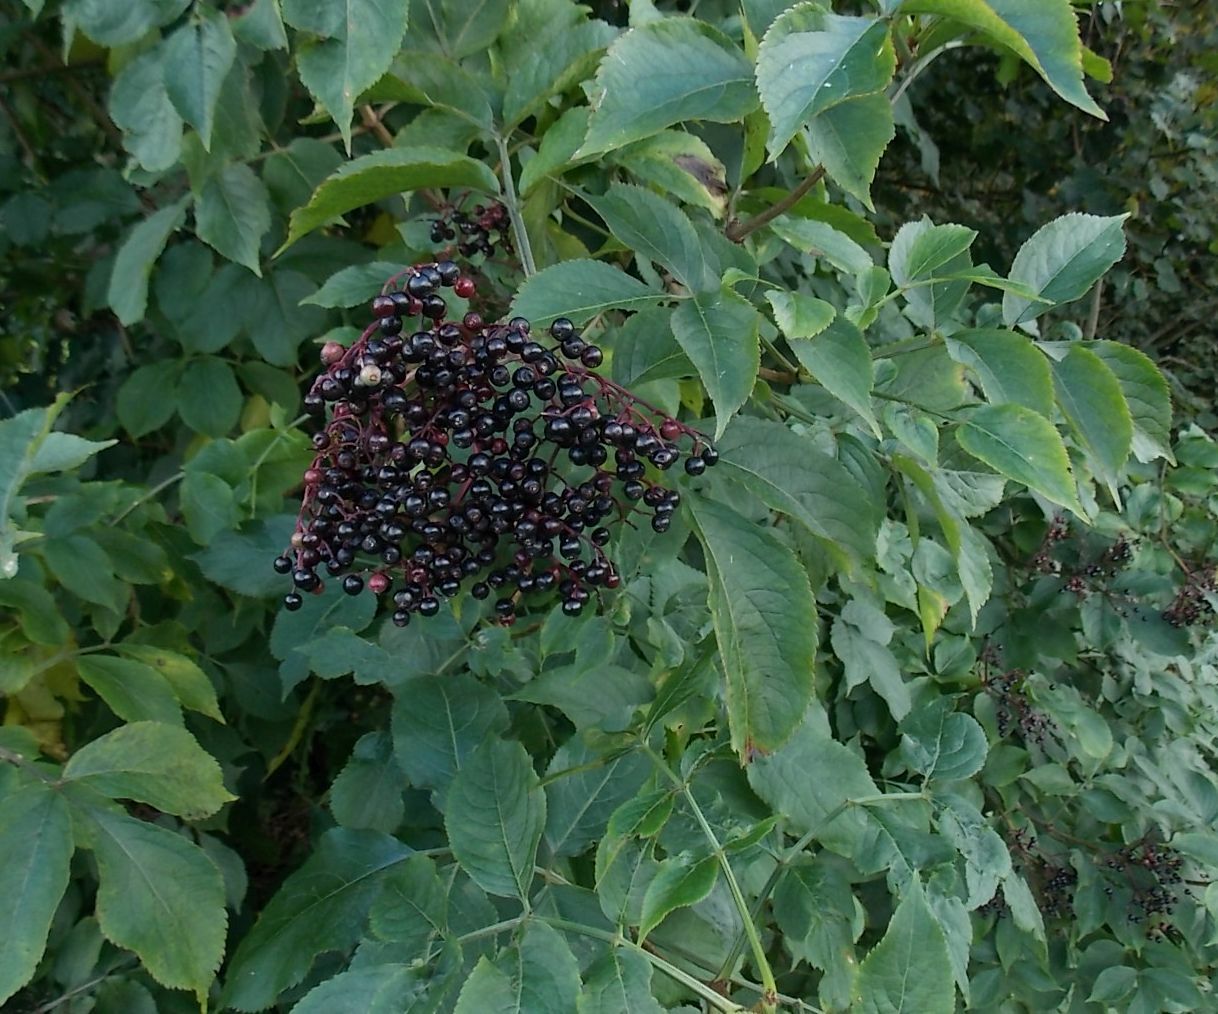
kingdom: Plantae
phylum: Tracheophyta
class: Magnoliopsida
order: Dipsacales
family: Viburnaceae
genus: Sambucus
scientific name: Sambucus nigra
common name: Elder
